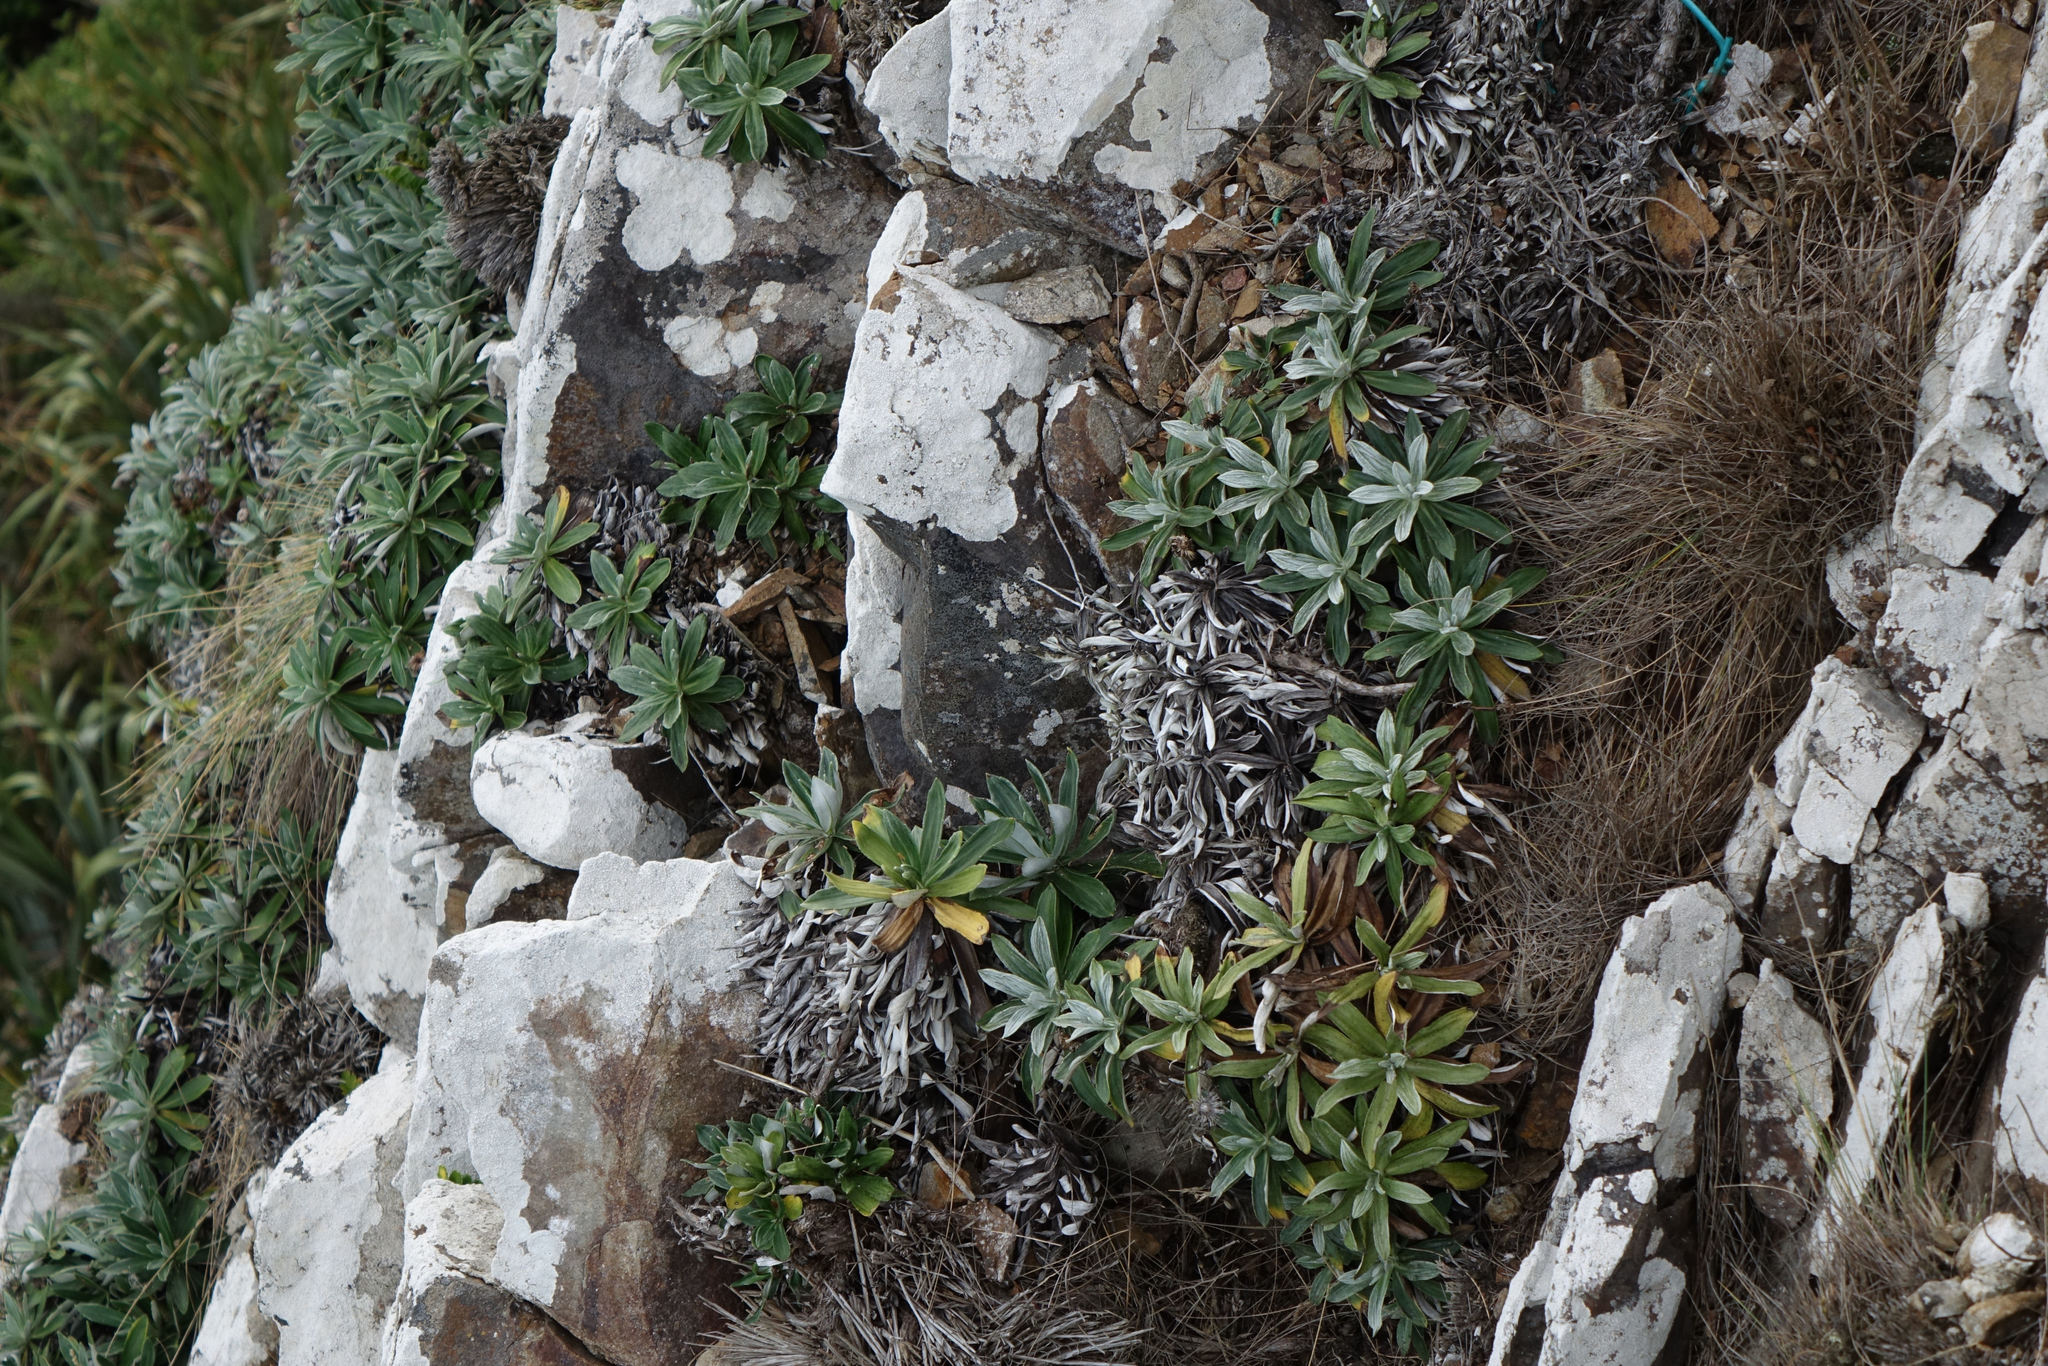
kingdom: Plantae
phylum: Tracheophyta
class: Magnoliopsida
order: Asterales
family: Asteraceae
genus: Celmisia
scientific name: Celmisia lindsayi
